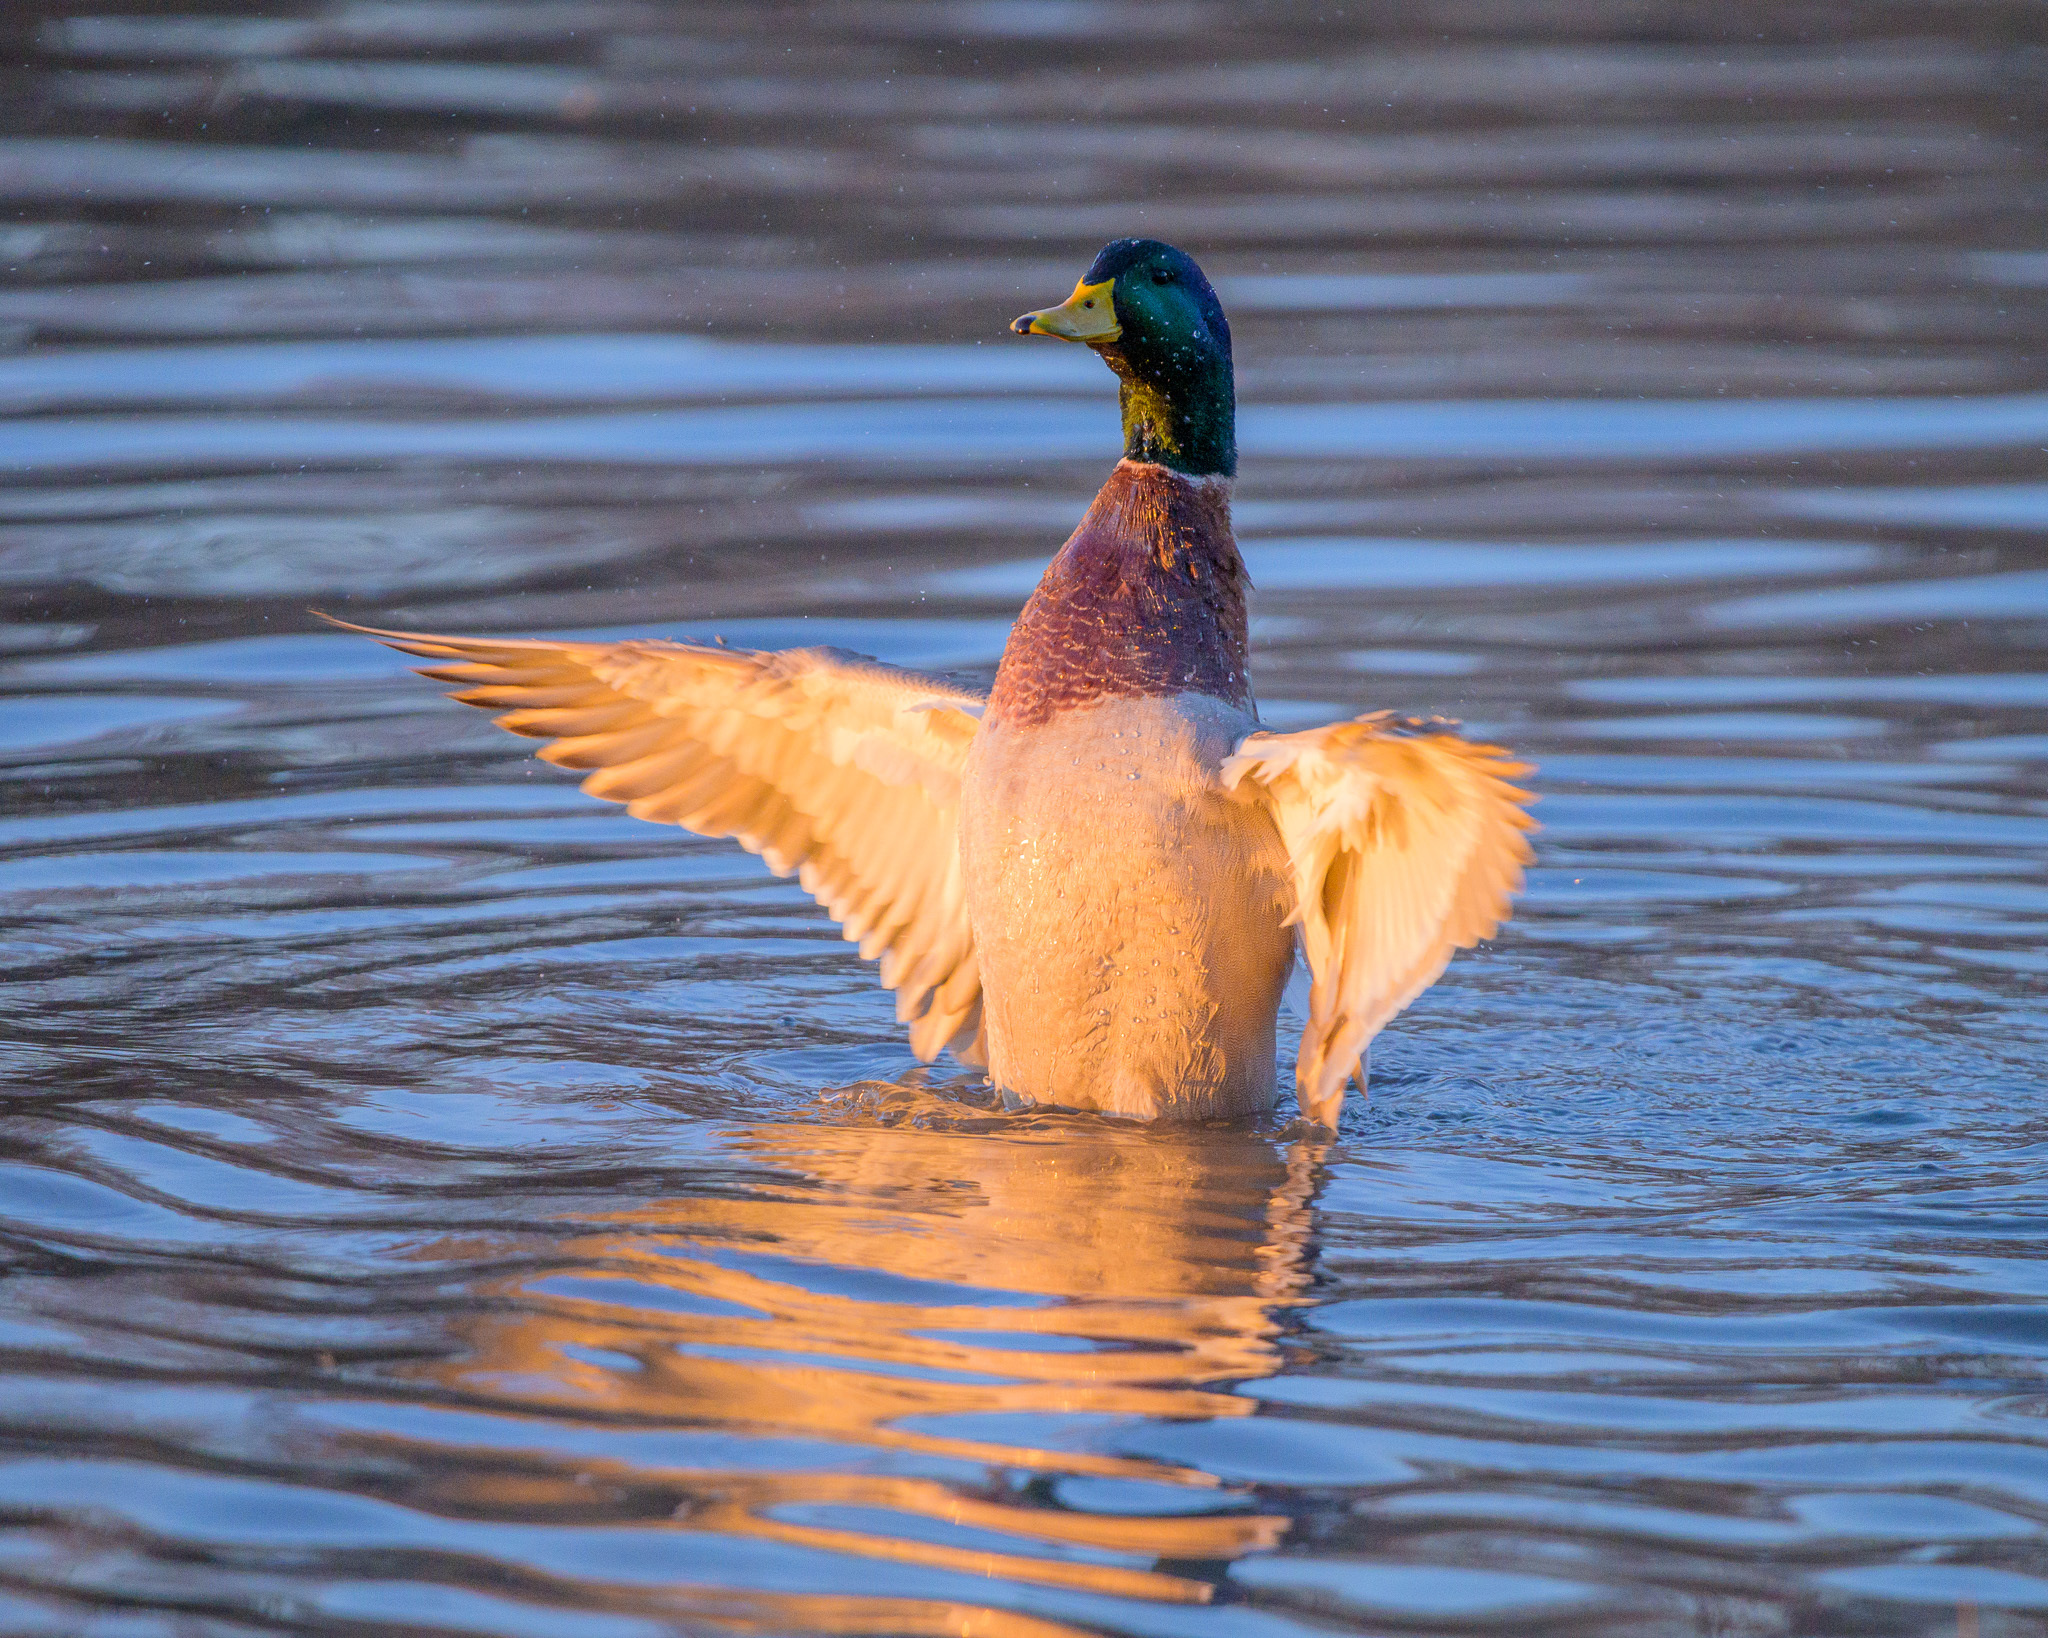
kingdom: Animalia
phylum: Chordata
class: Aves
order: Anseriformes
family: Anatidae
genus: Anas
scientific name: Anas platyrhynchos
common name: Mallard
